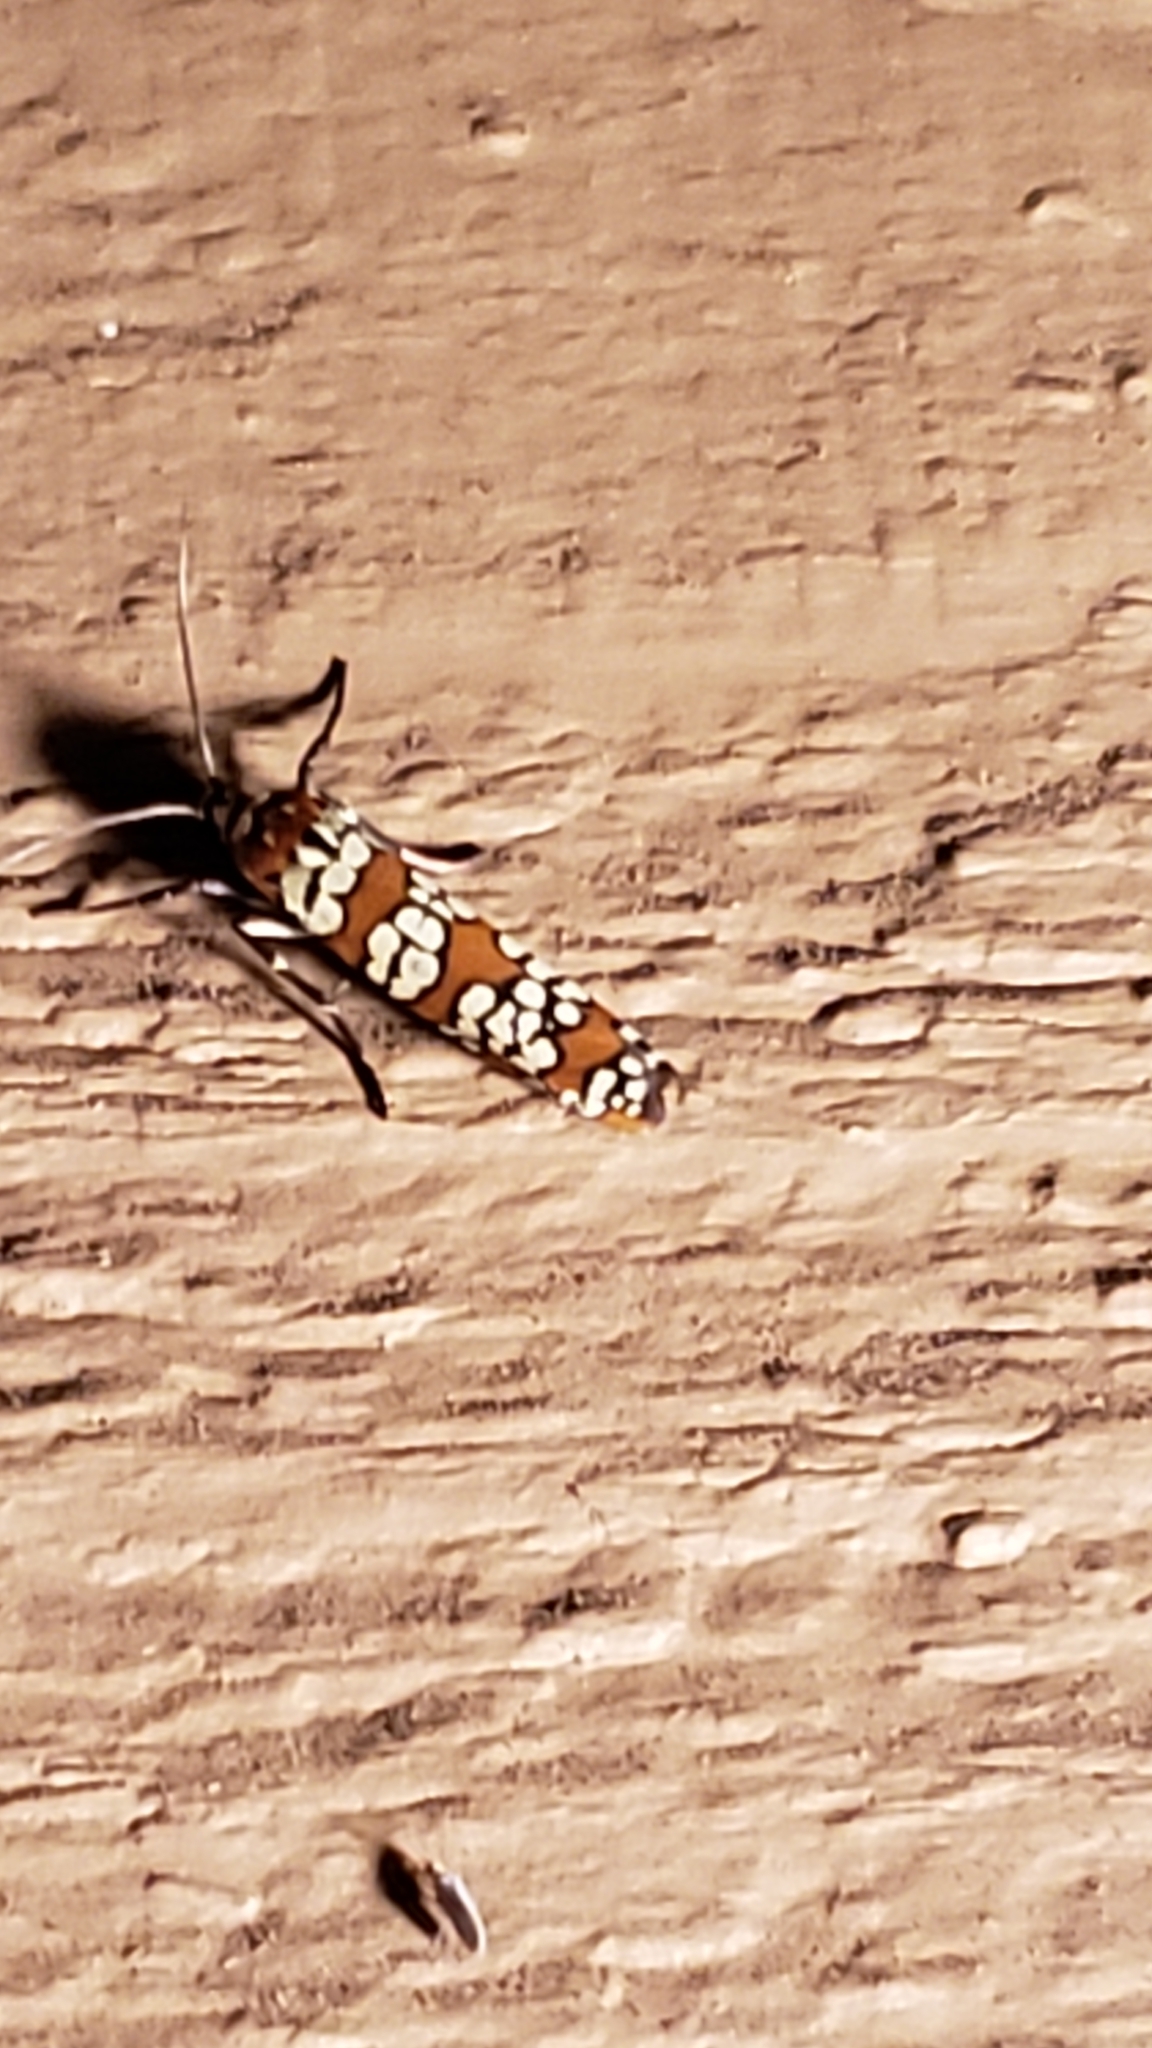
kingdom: Animalia
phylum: Arthropoda
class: Insecta
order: Lepidoptera
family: Attevidae
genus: Atteva
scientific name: Atteva punctella
